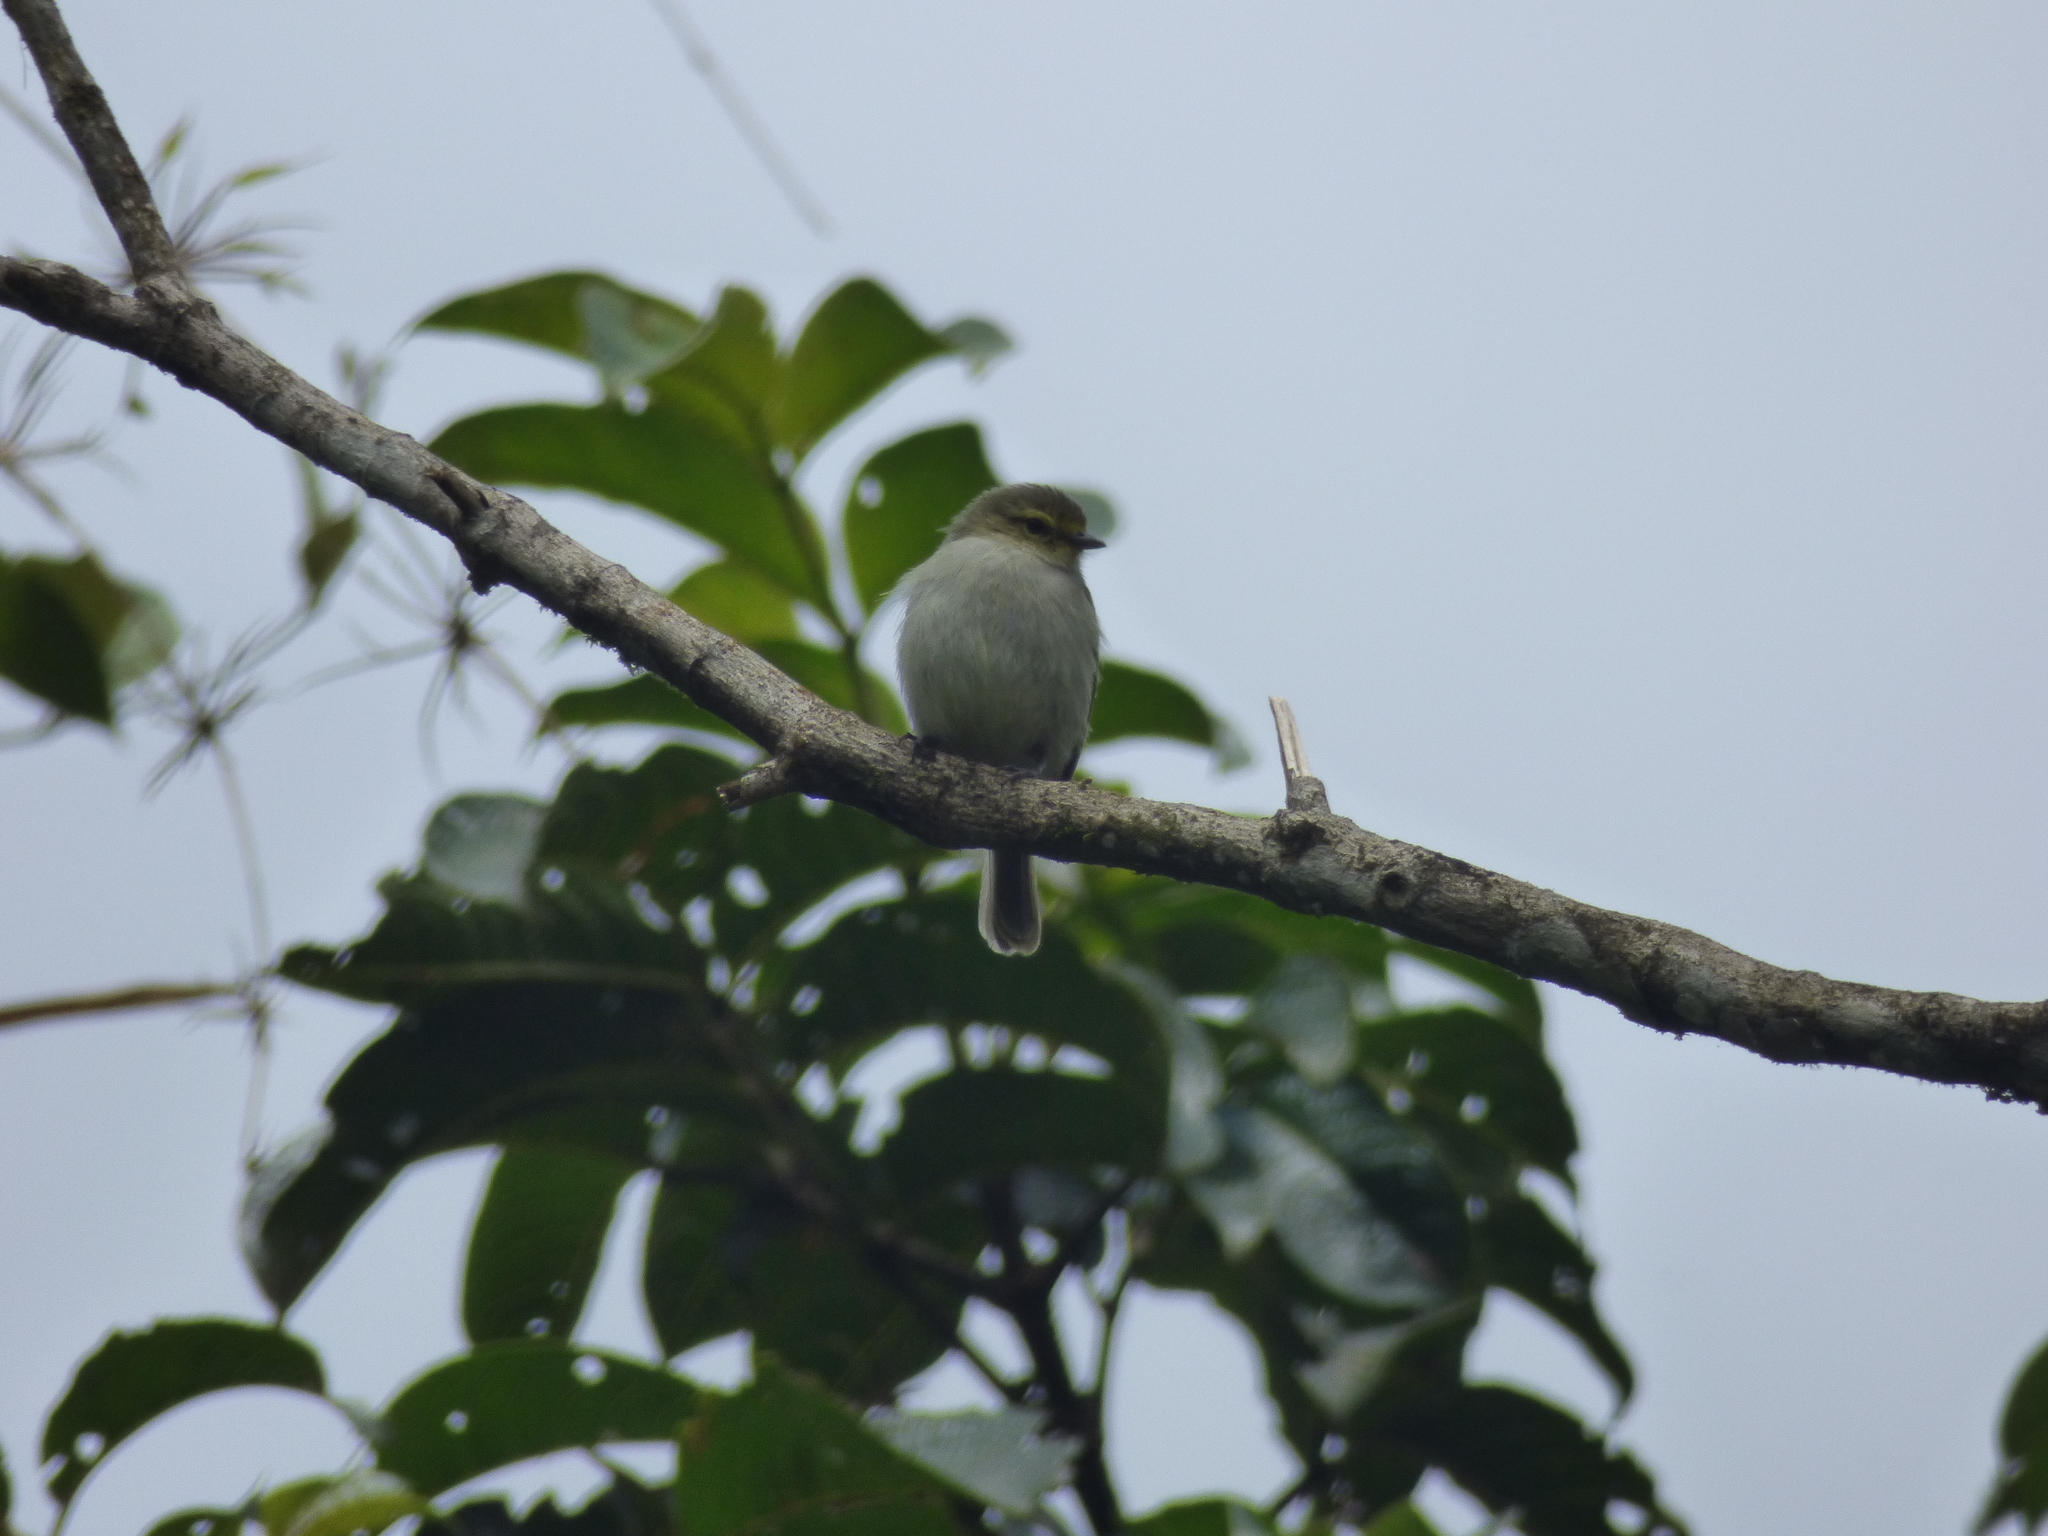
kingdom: Animalia
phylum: Chordata
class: Aves
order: Passeriformes
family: Tyrannidae
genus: Zimmerius
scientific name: Zimmerius chrysops
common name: Golden-faced tyrannulet
